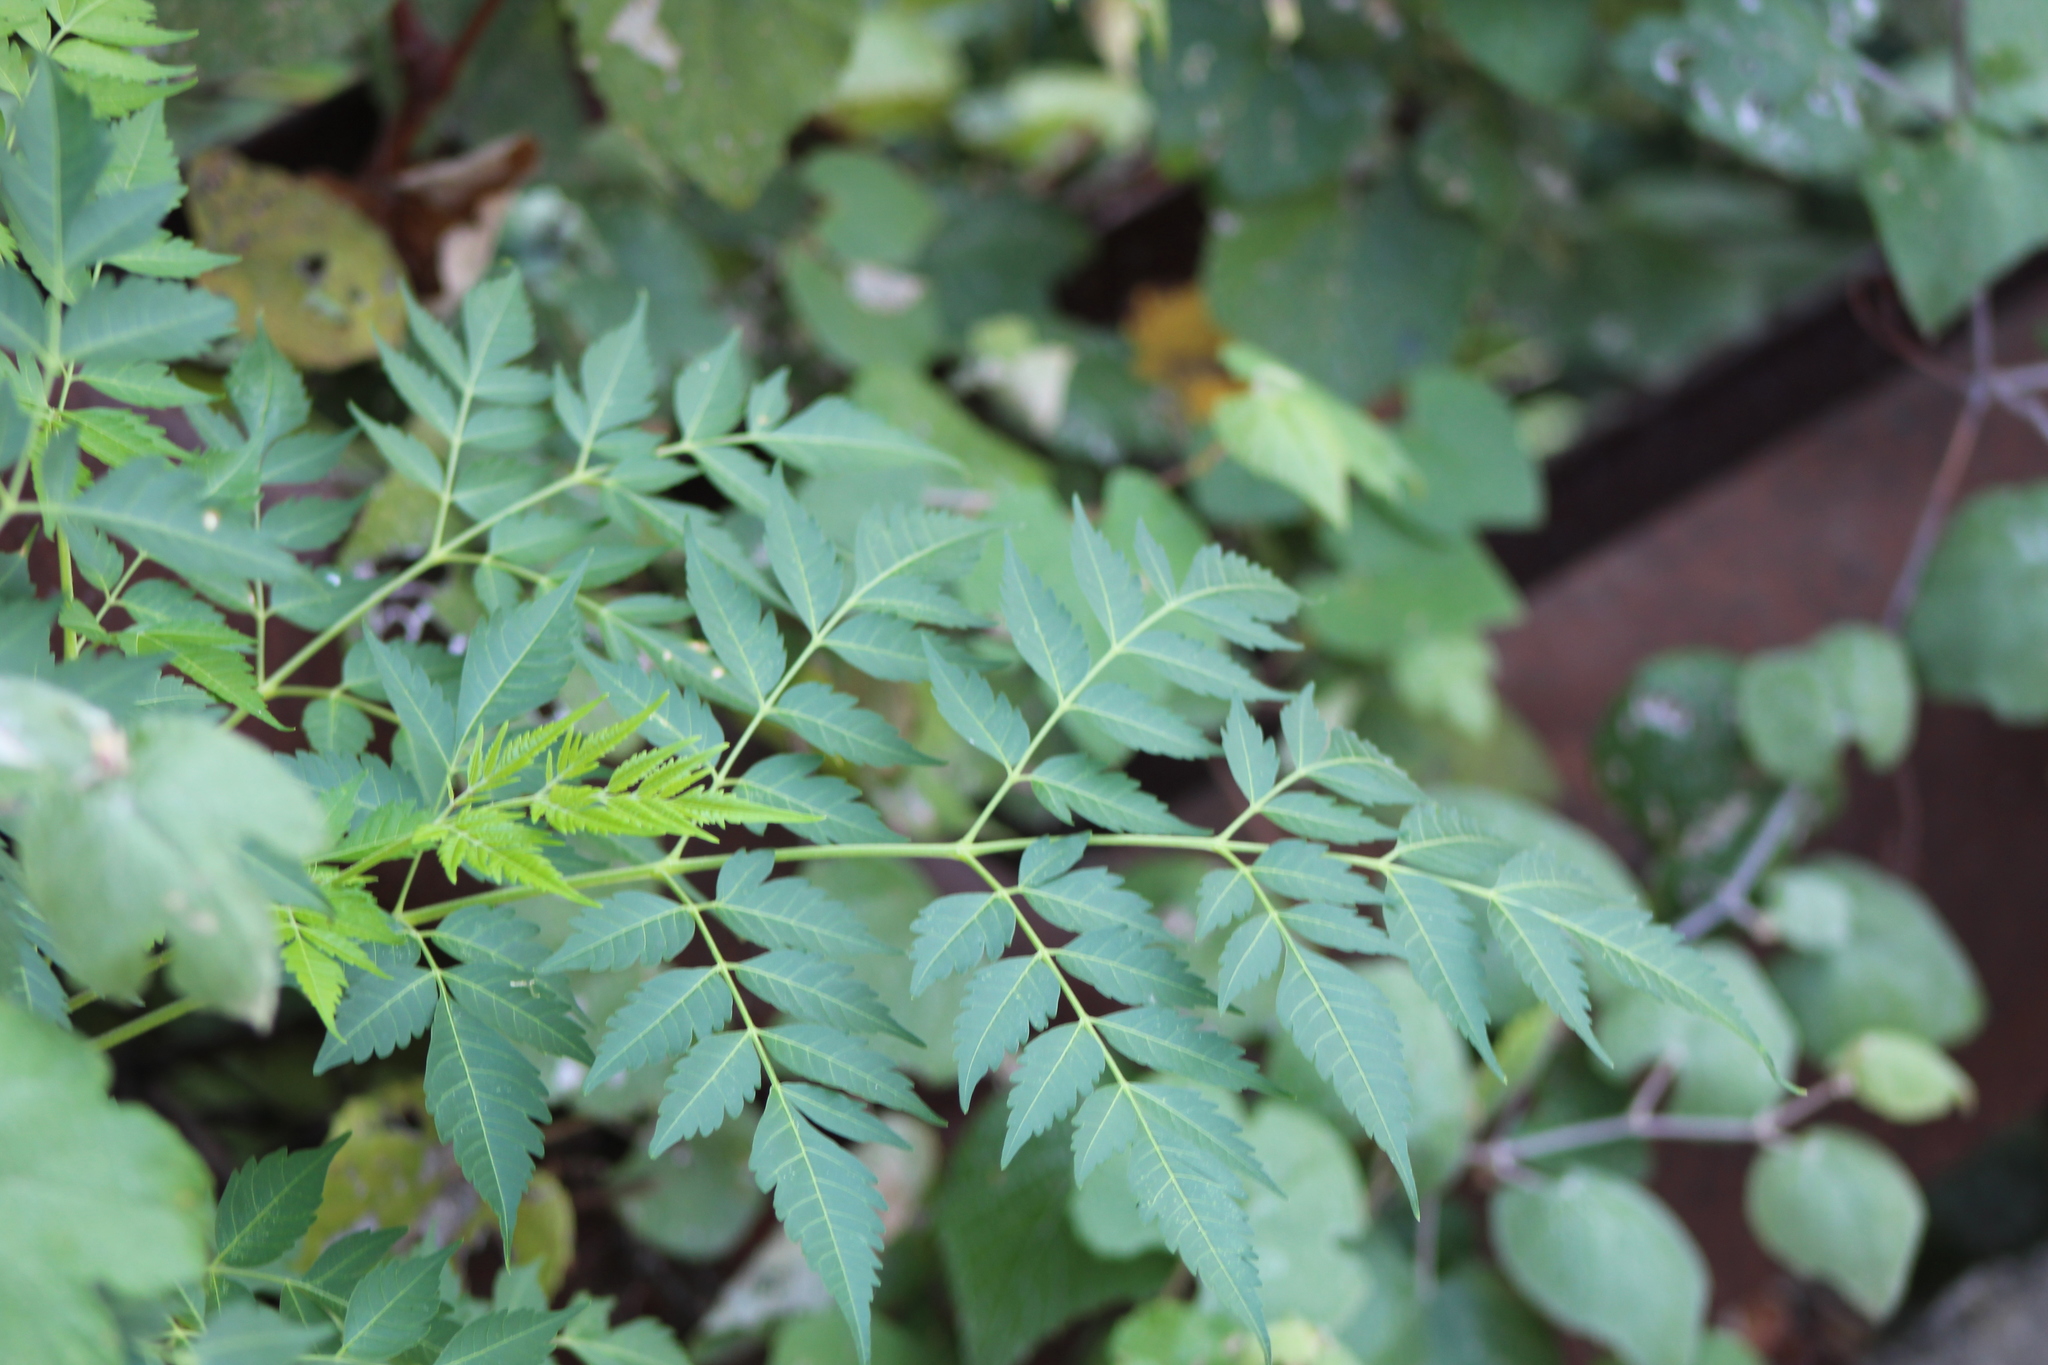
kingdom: Plantae
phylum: Tracheophyta
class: Magnoliopsida
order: Sapindales
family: Meliaceae
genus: Melia
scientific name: Melia azedarach
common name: Chinaberrytree
